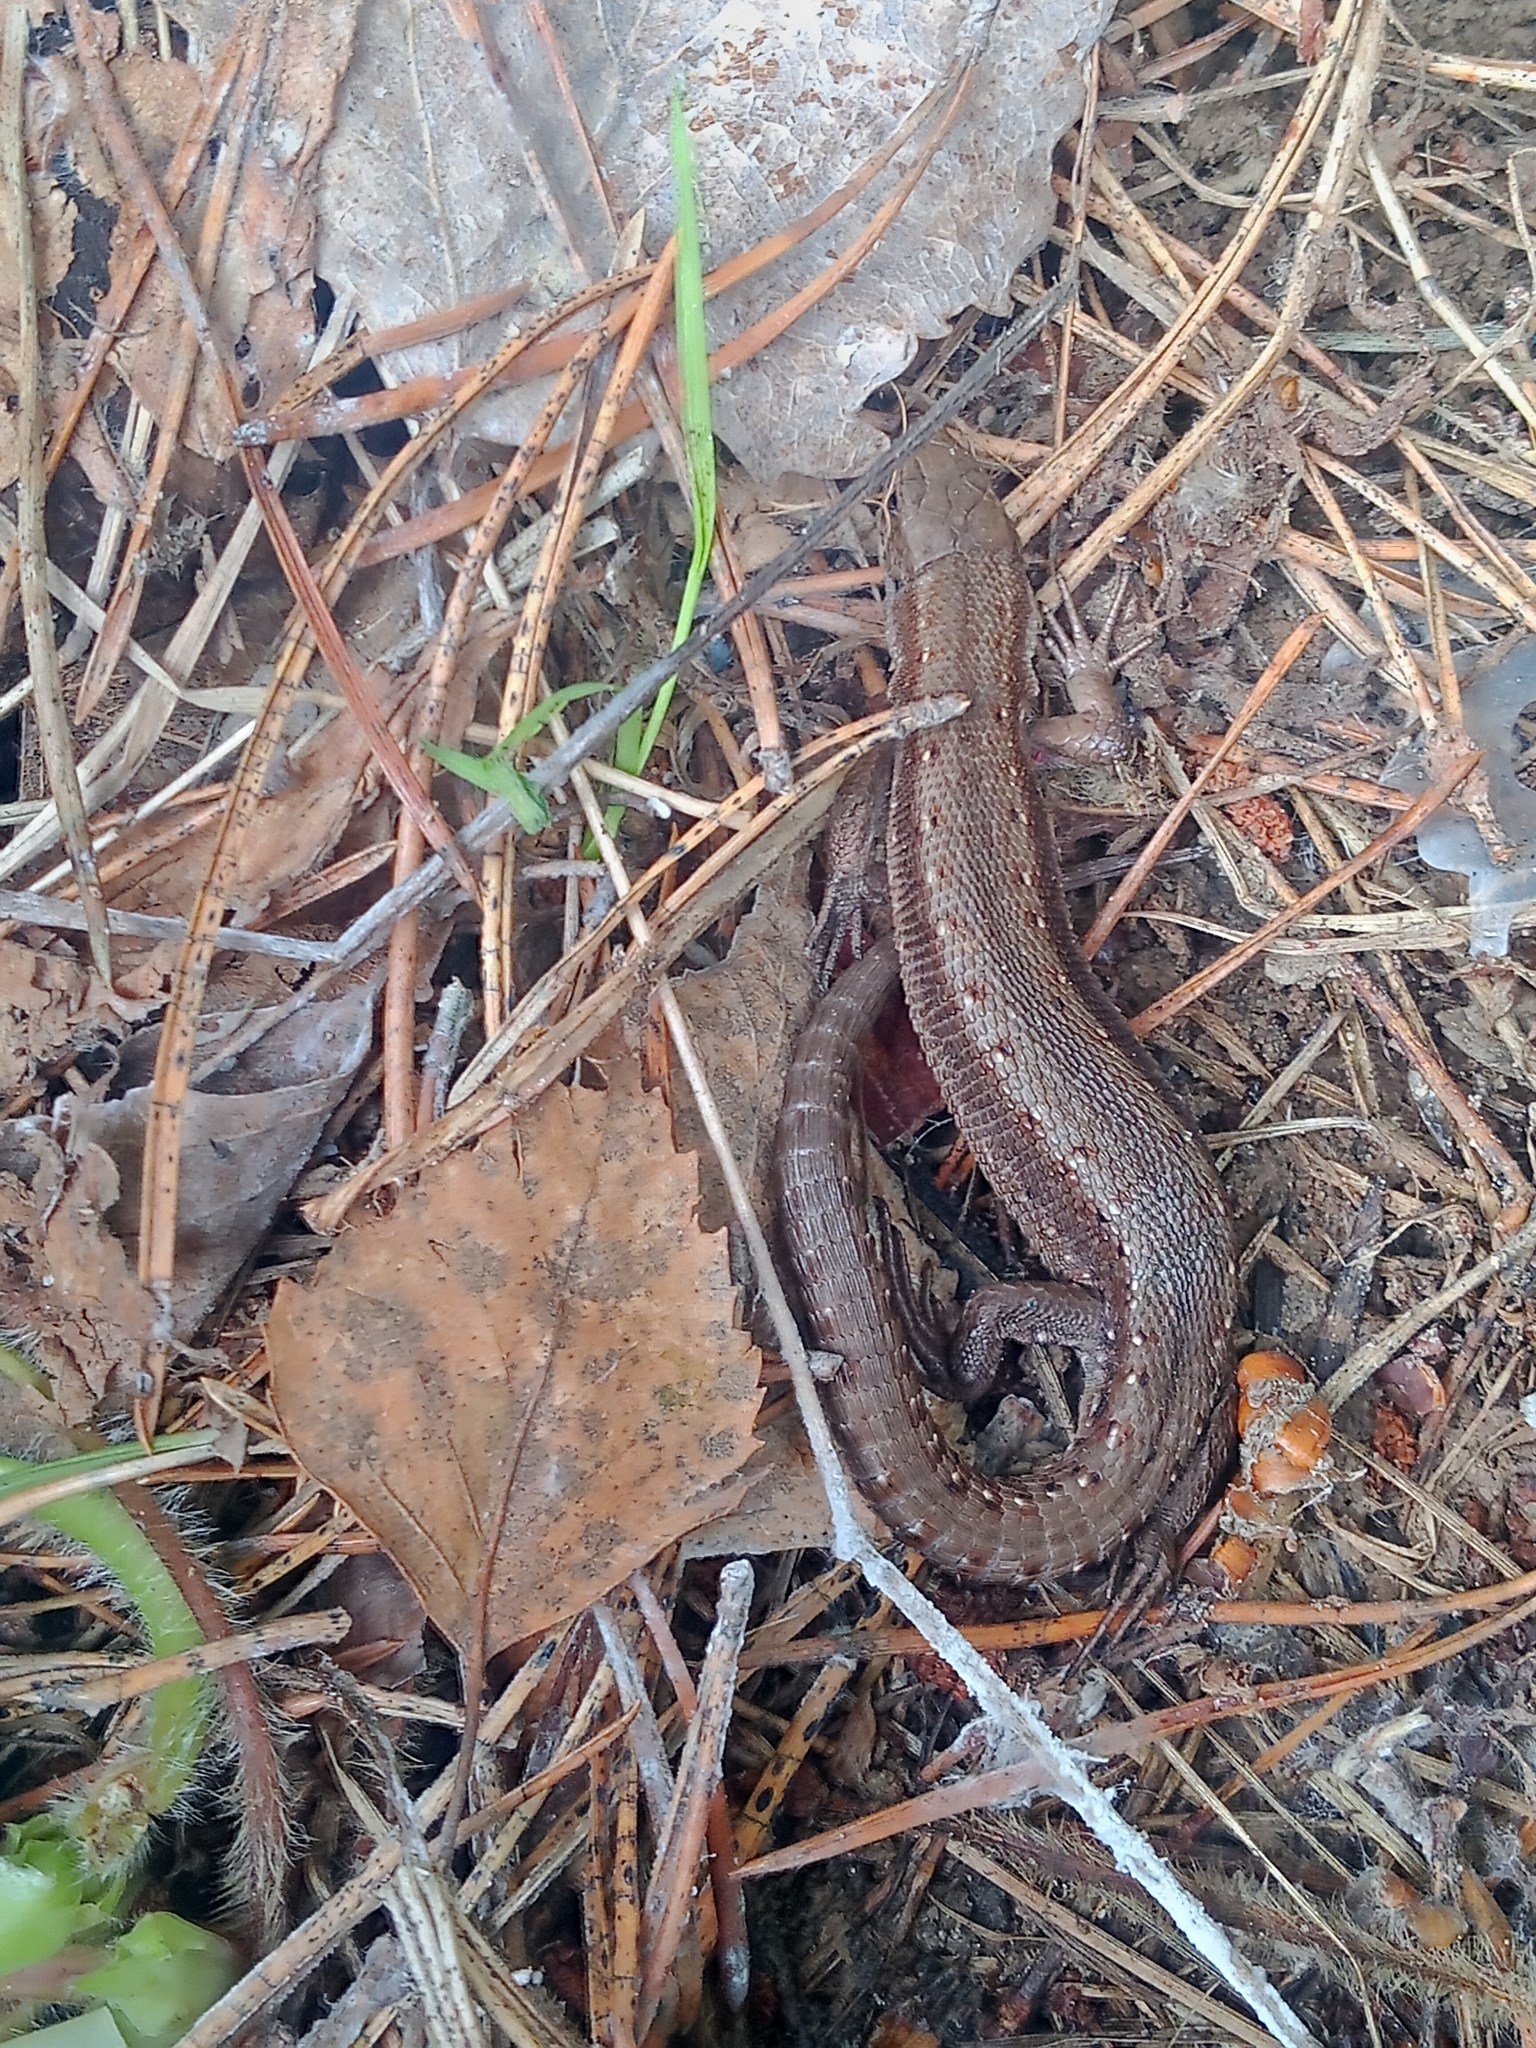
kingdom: Animalia
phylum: Chordata
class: Squamata
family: Lacertidae
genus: Zootoca
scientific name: Zootoca vivipara
